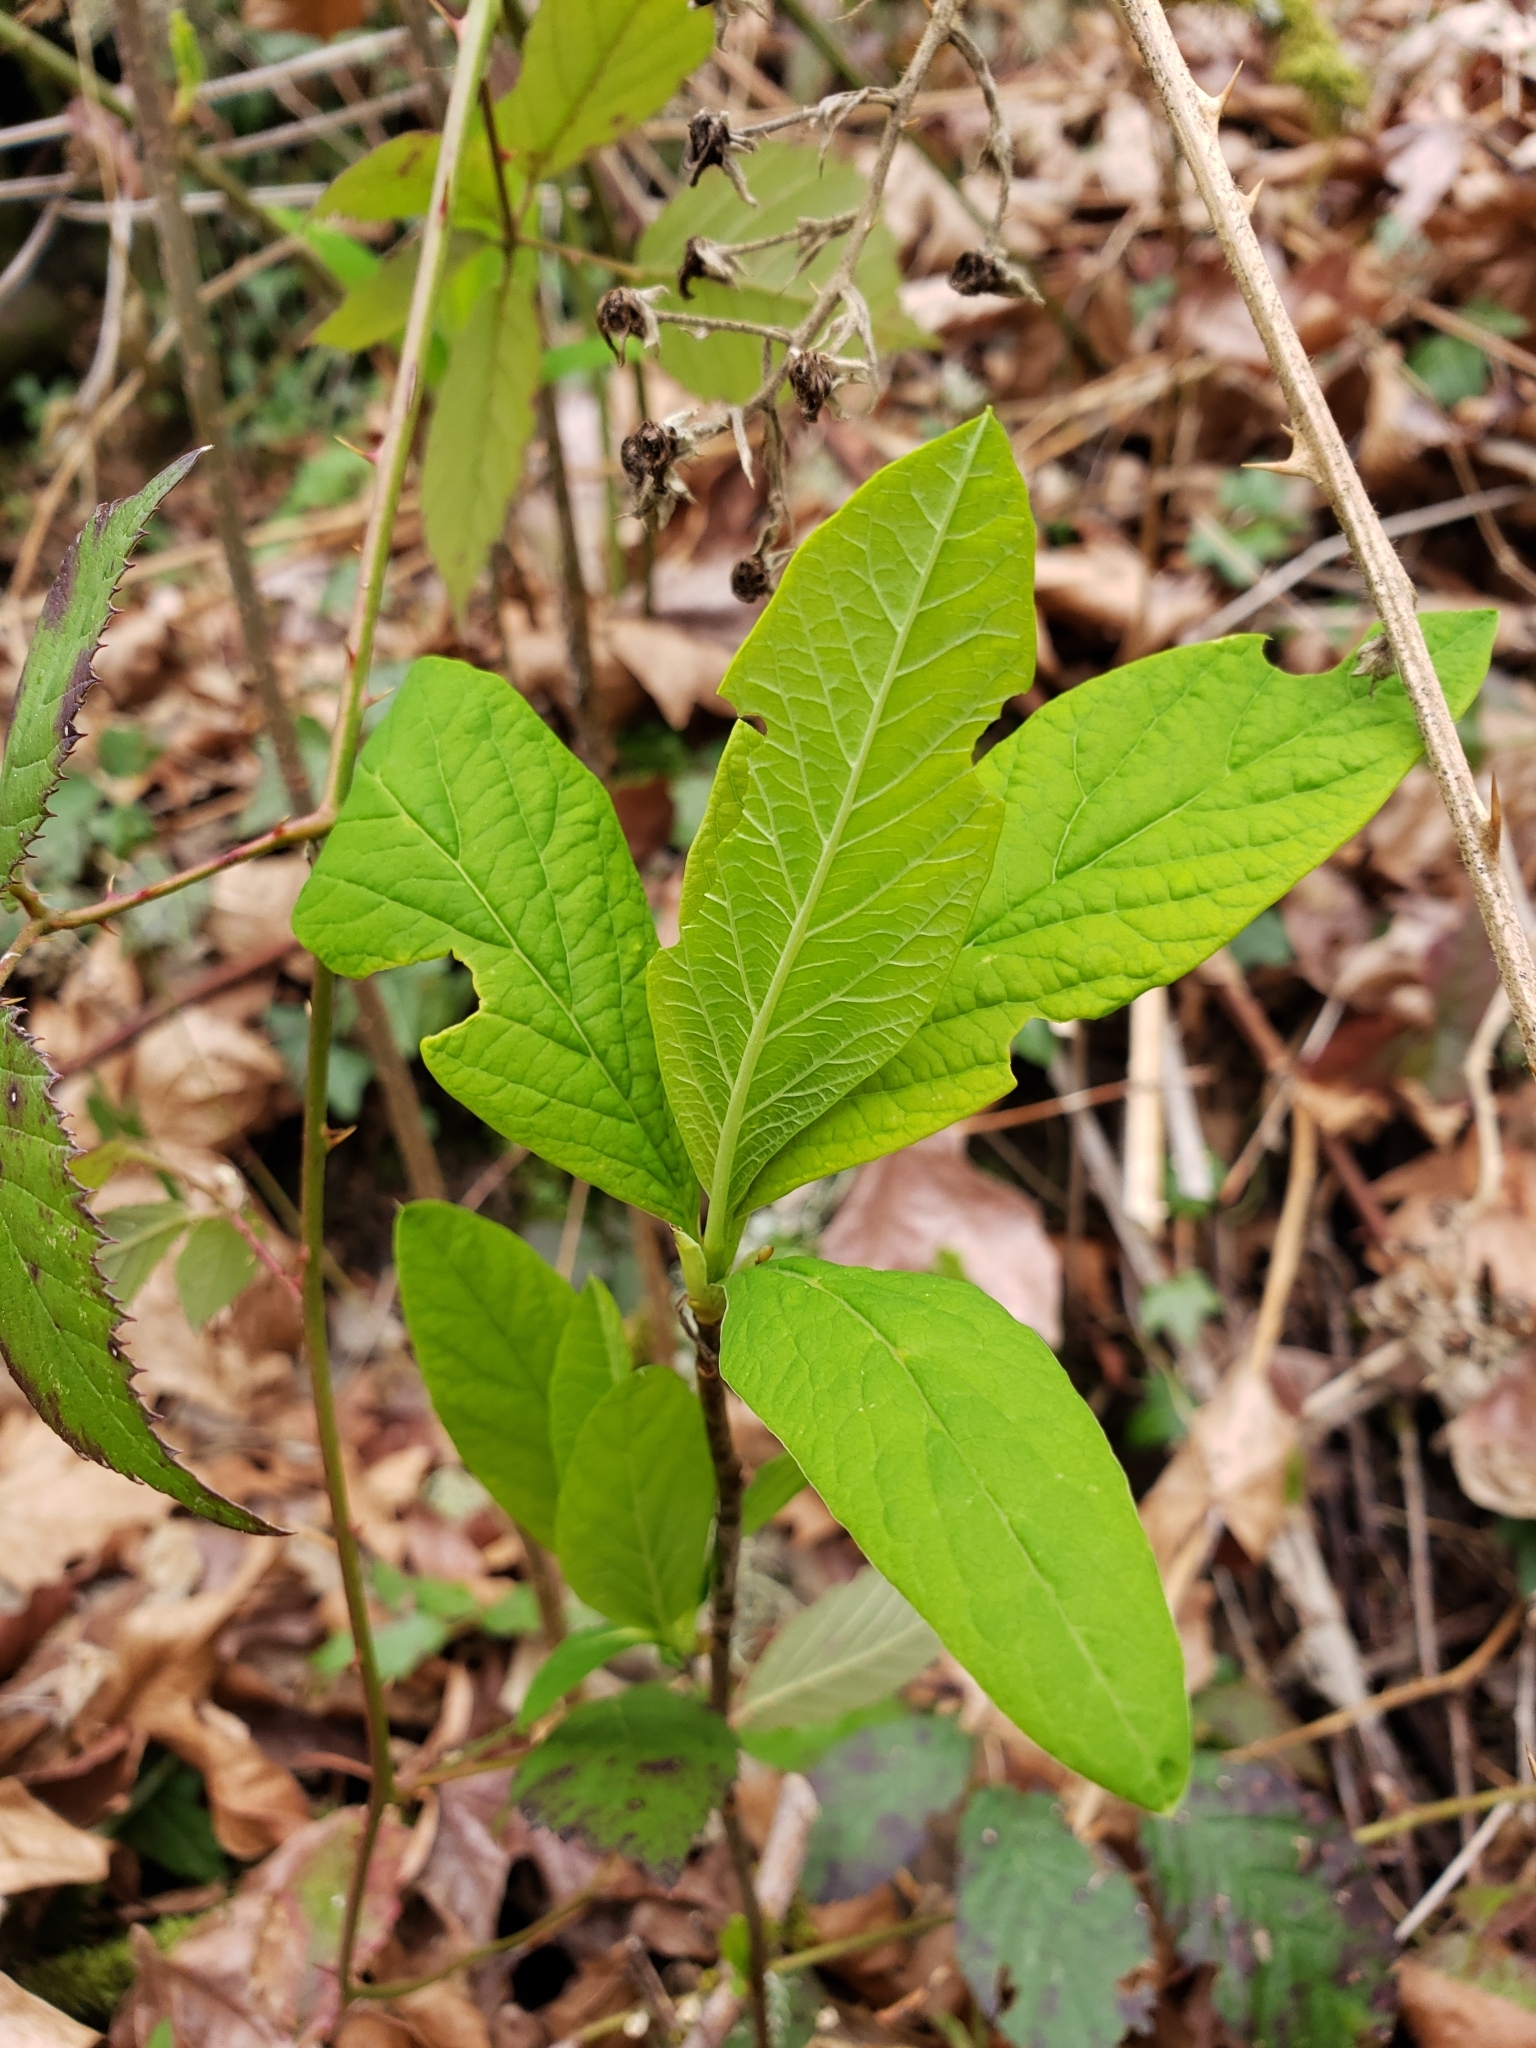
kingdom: Plantae
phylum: Tracheophyta
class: Magnoliopsida
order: Rosales
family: Rosaceae
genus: Oemleria
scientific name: Oemleria cerasiformis
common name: Osoberry
